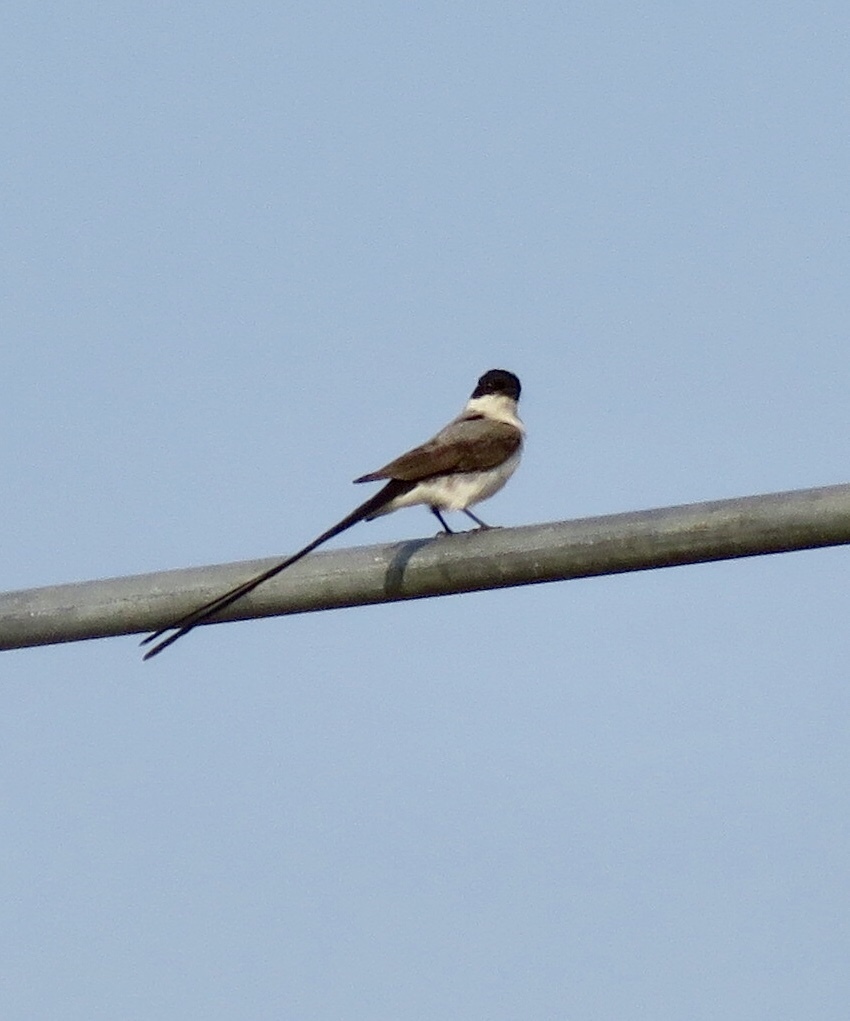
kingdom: Animalia
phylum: Chordata
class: Aves
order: Passeriformes
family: Tyrannidae
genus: Tyrannus
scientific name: Tyrannus savana
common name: Fork-tailed flycatcher
